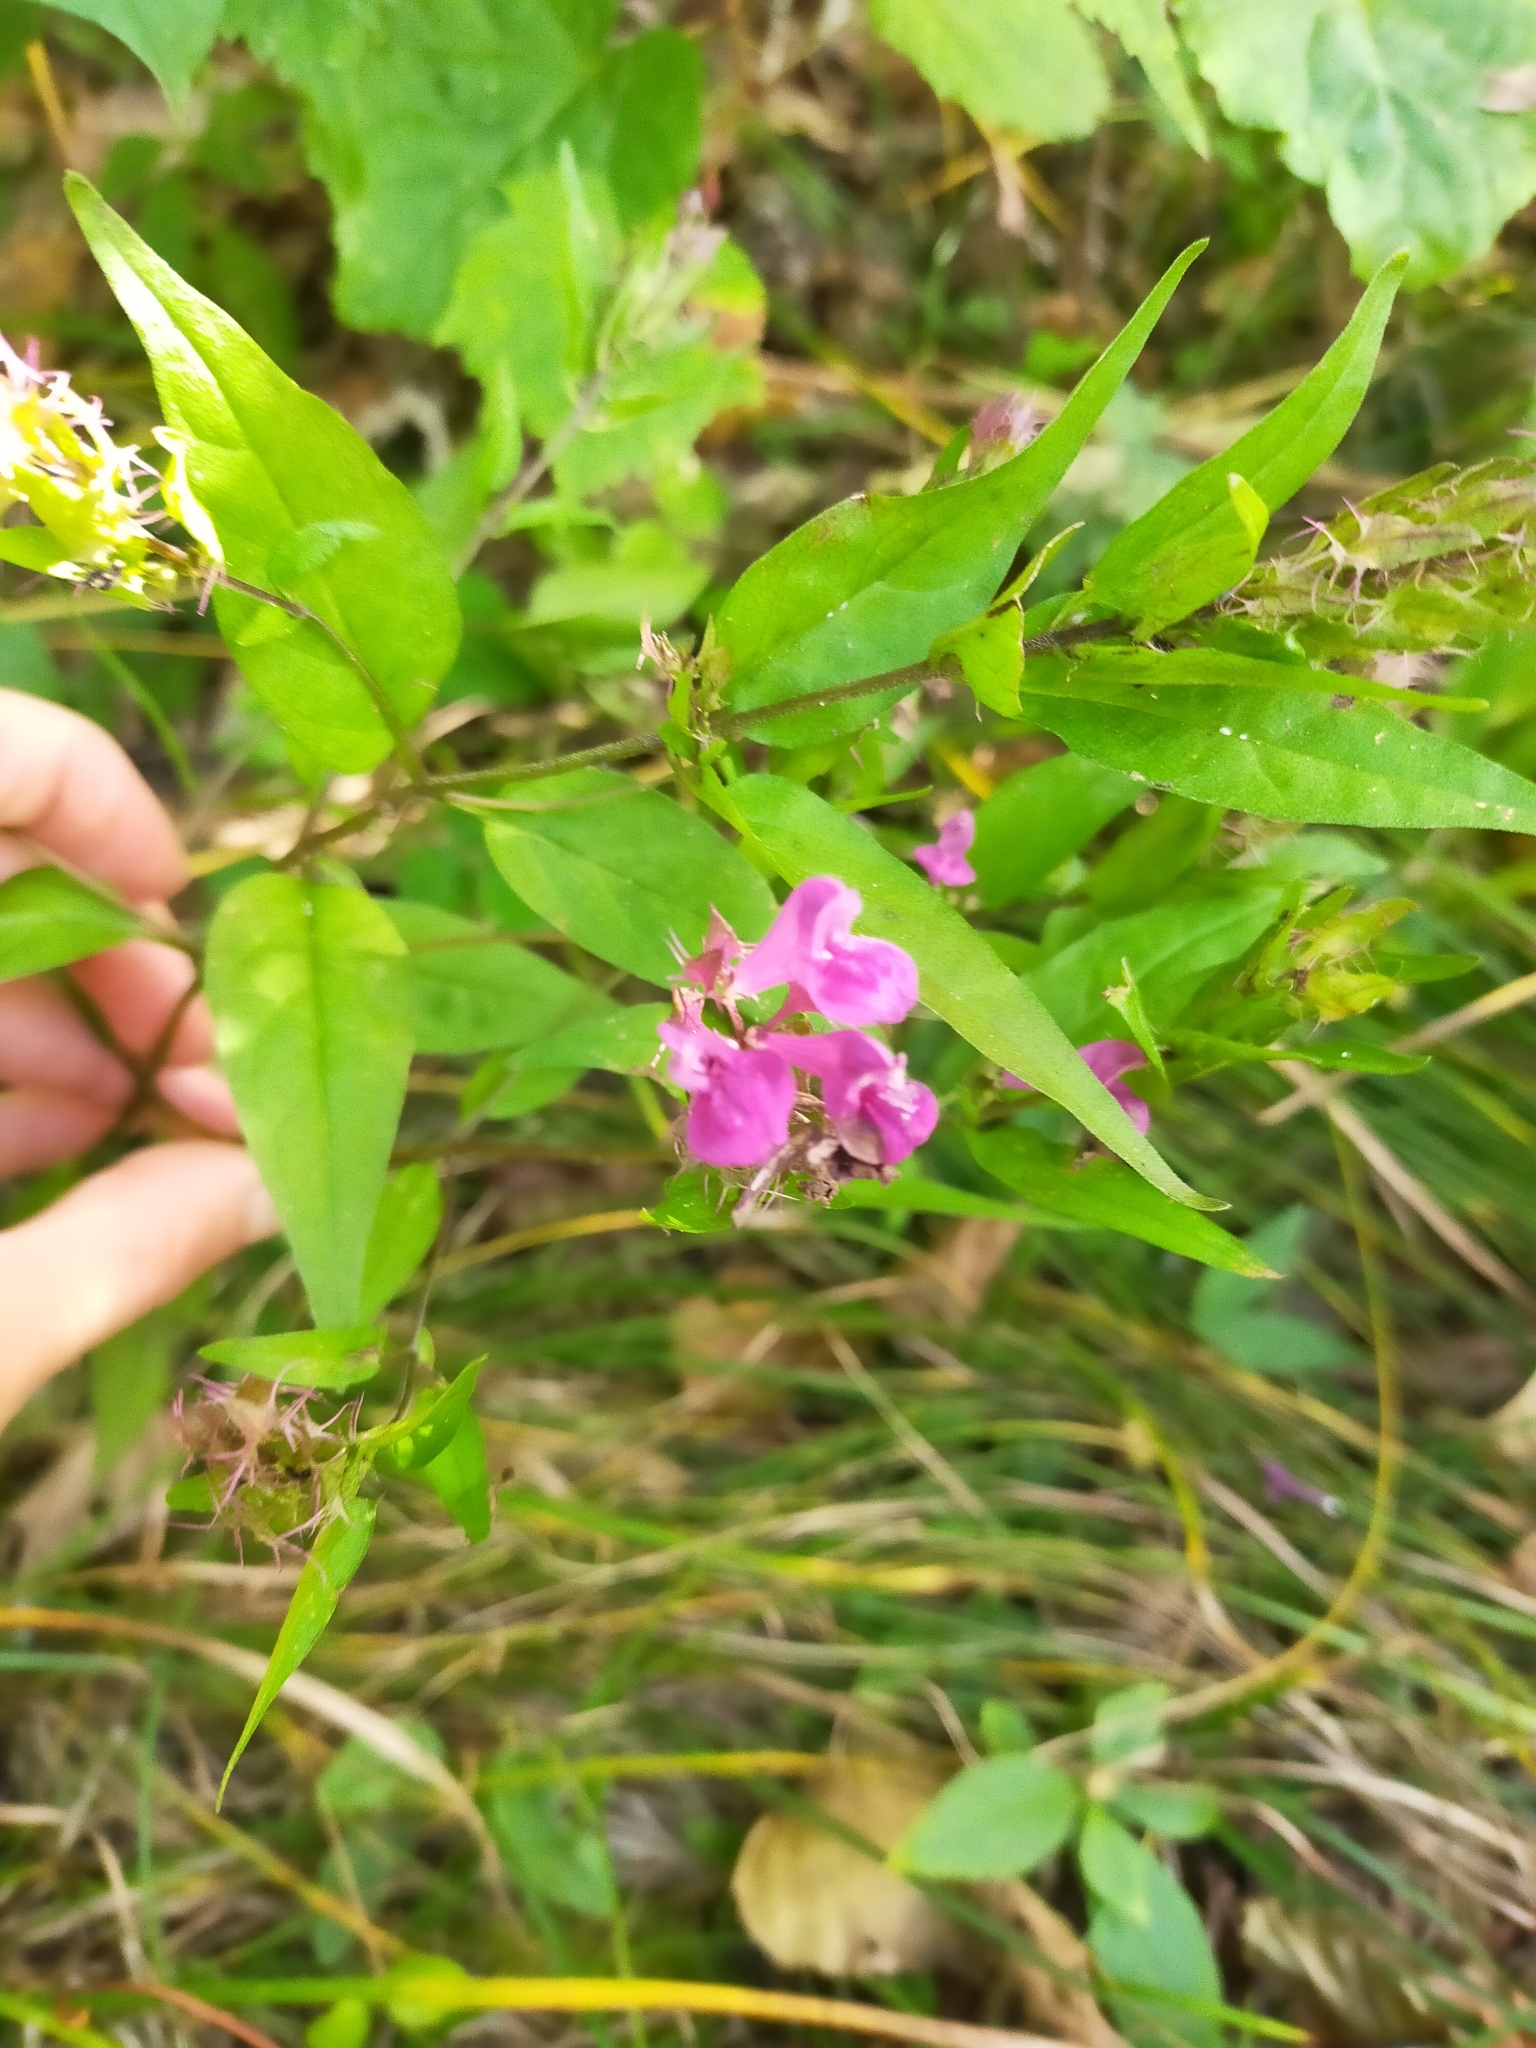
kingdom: Plantae
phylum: Tracheophyta
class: Magnoliopsida
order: Lamiales
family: Orobanchaceae
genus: Melampyrum
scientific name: Melampyrum roseum
